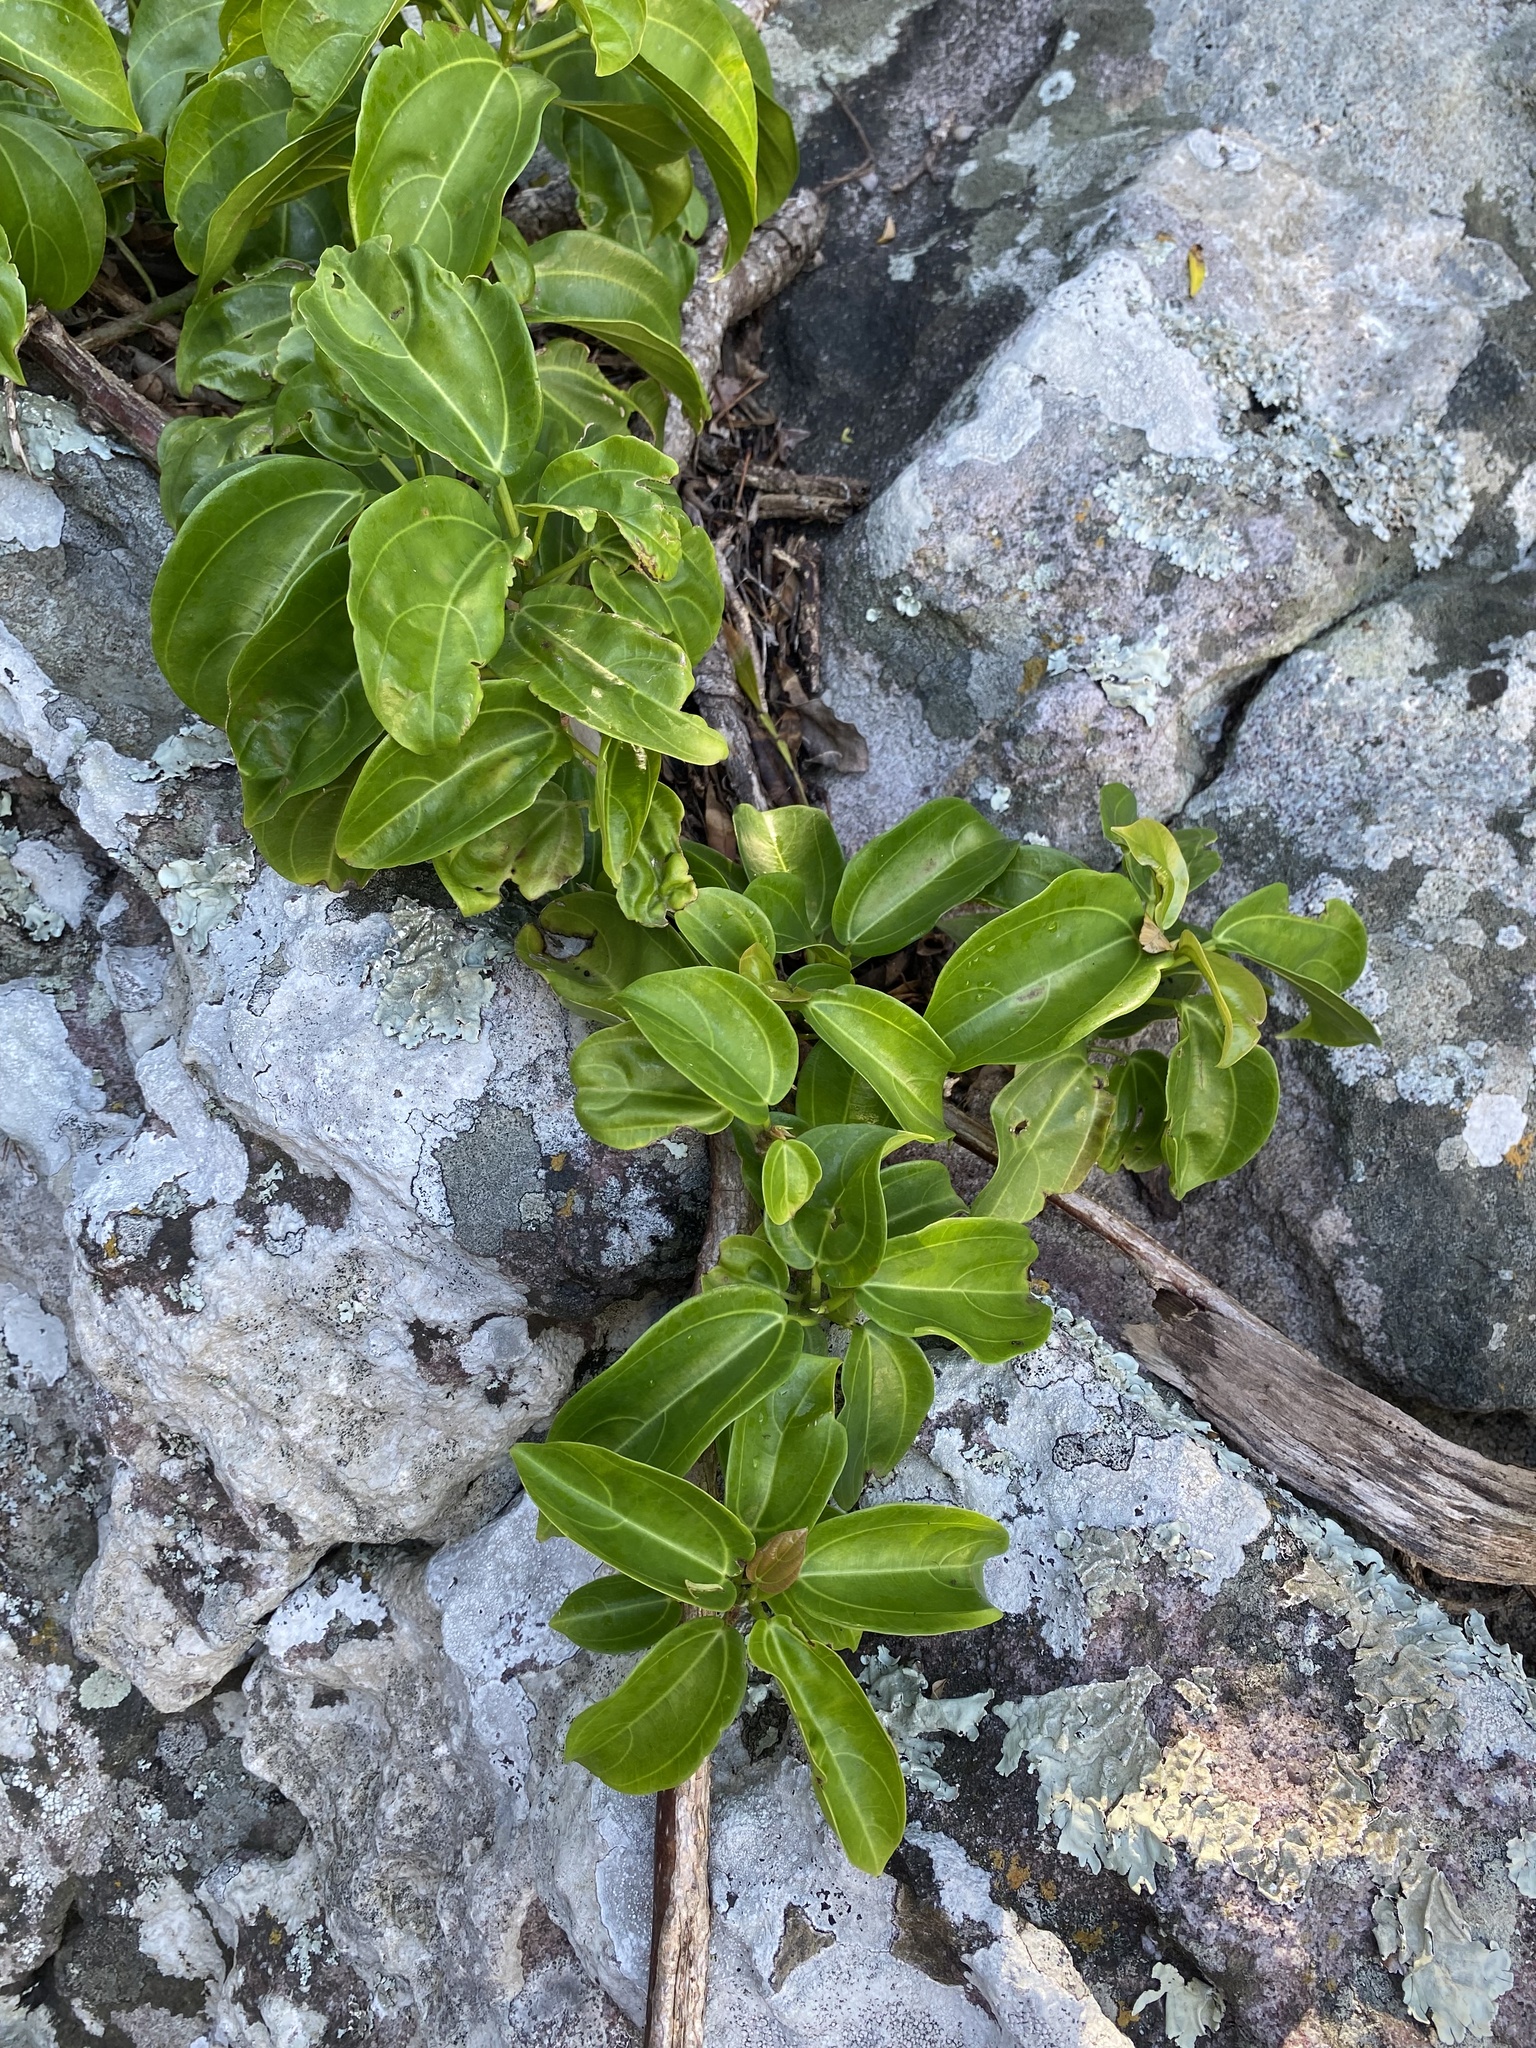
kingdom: Plantae
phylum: Tracheophyta
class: Magnoliopsida
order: Rosales
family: Urticaceae
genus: Scepocarpus
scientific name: Scepocarpus trinervis
